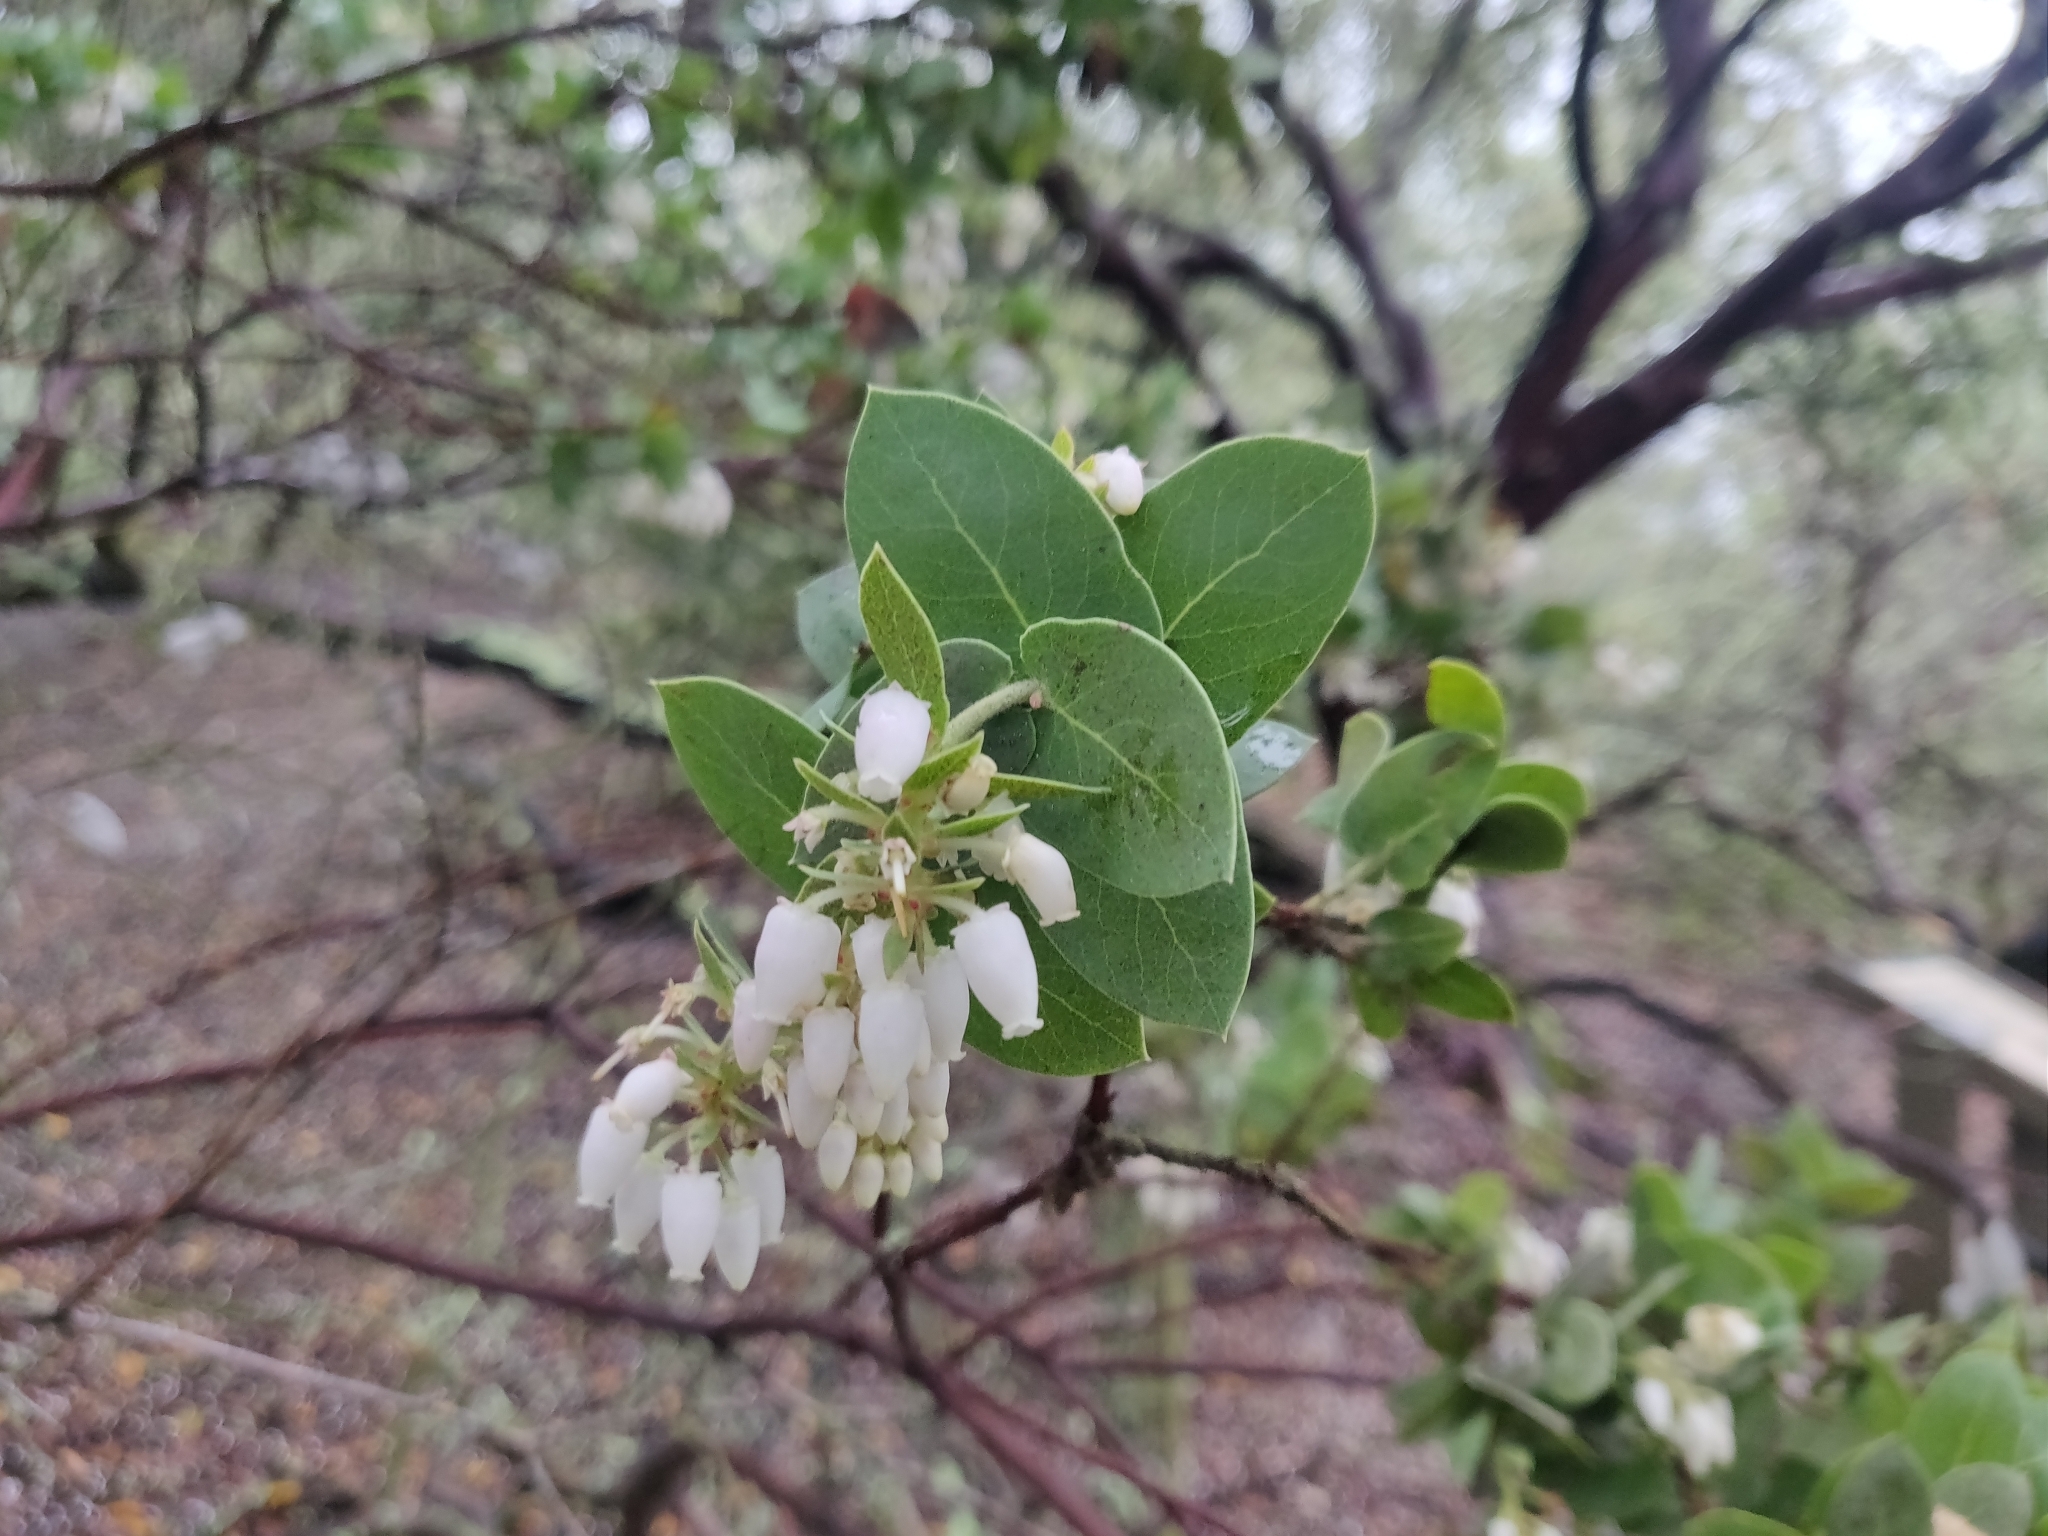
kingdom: Plantae
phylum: Tracheophyta
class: Magnoliopsida
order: Ericales
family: Ericaceae
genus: Arctostaphylos
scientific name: Arctostaphylos pallida
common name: Pallid manzanita
